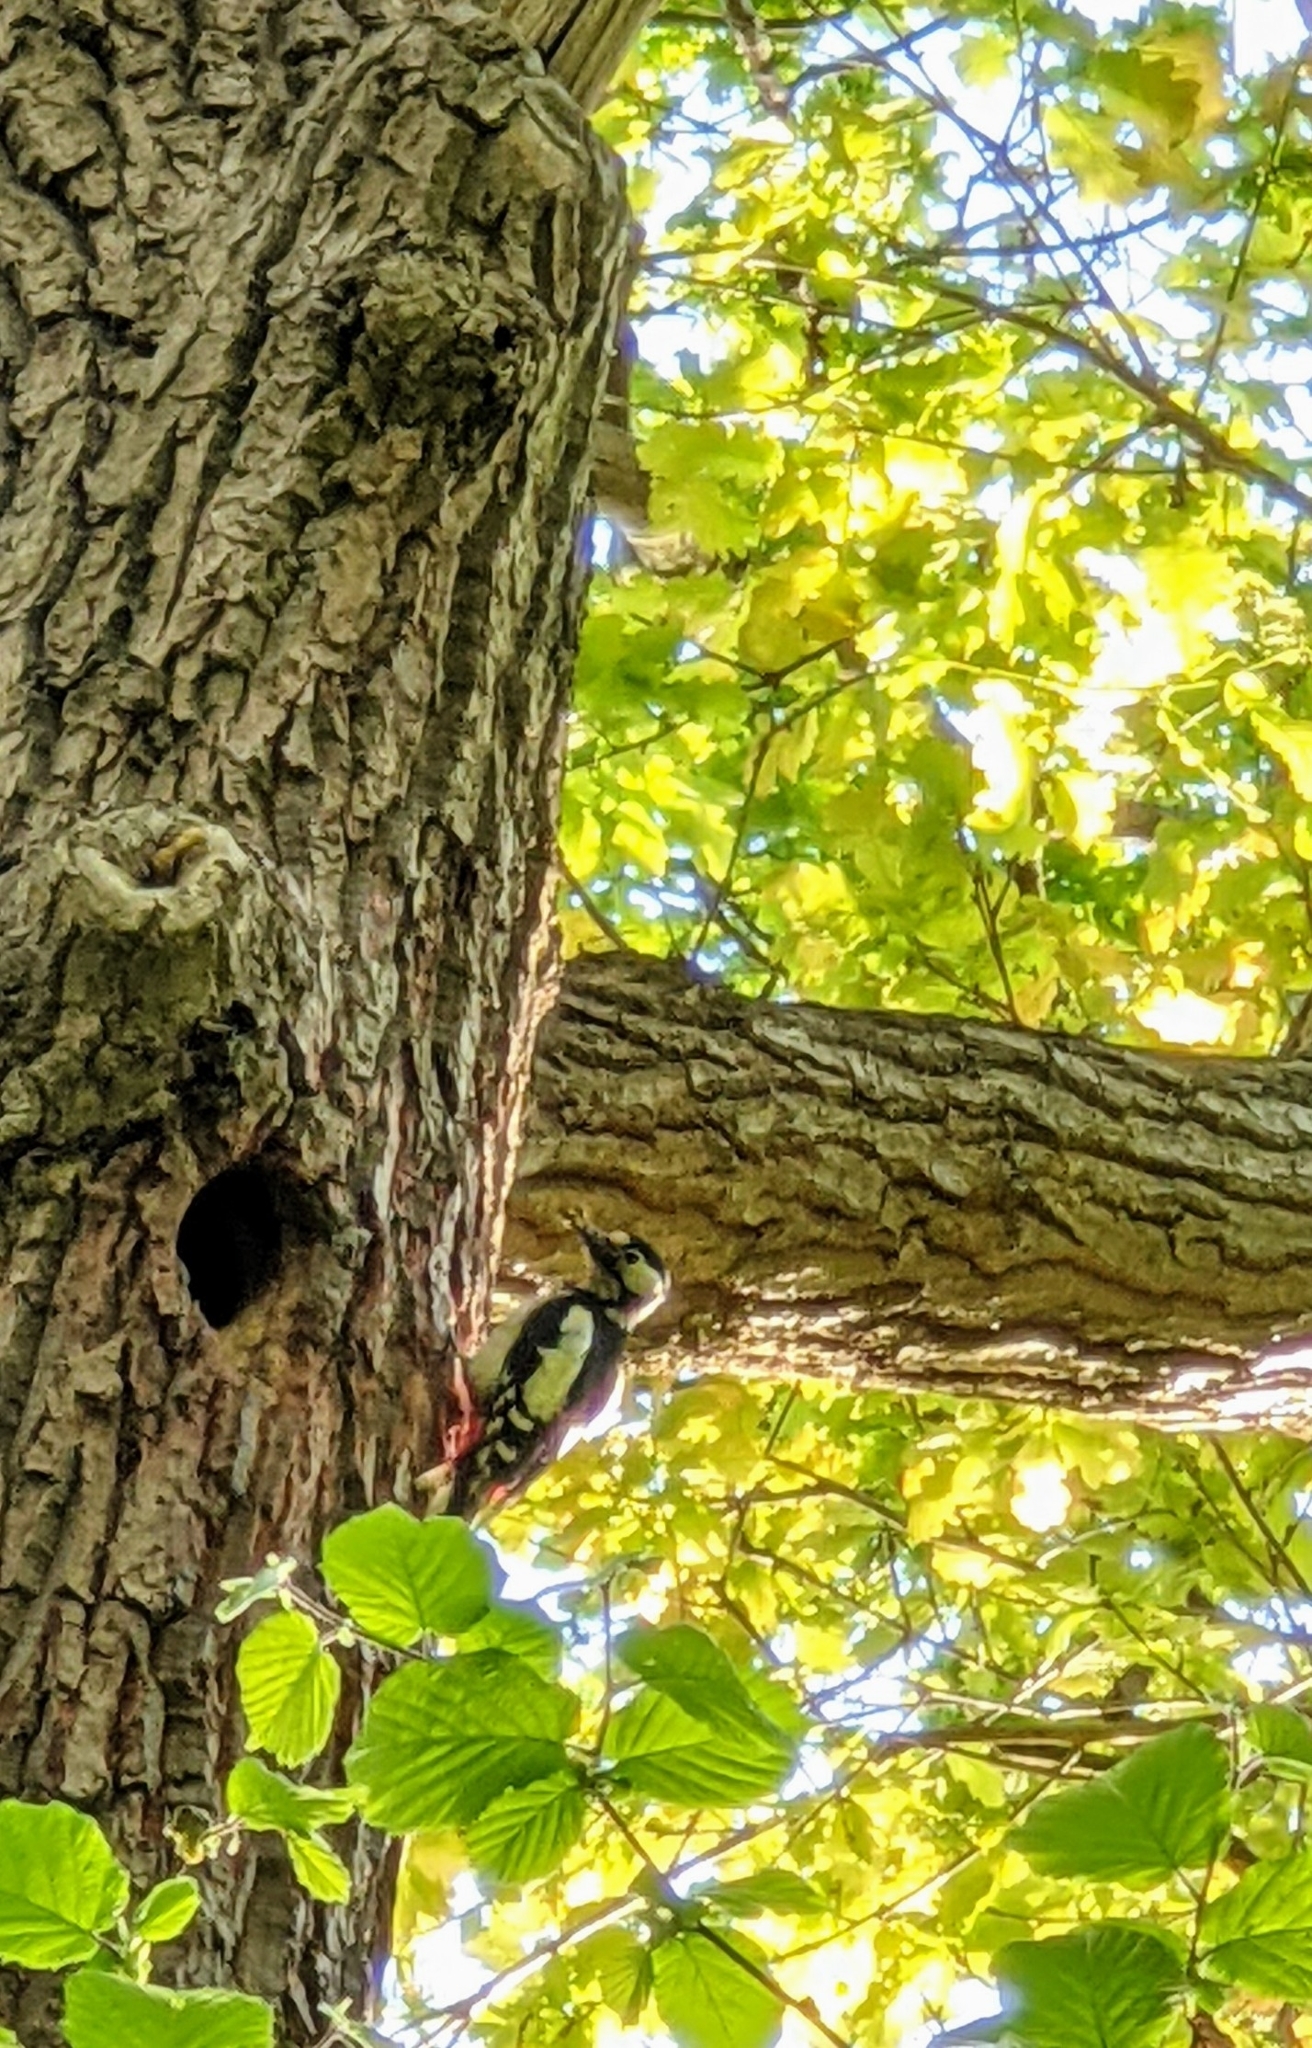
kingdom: Animalia
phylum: Chordata
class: Aves
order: Piciformes
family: Picidae
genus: Dendrocopos
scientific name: Dendrocopos major
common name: Great spotted woodpecker
